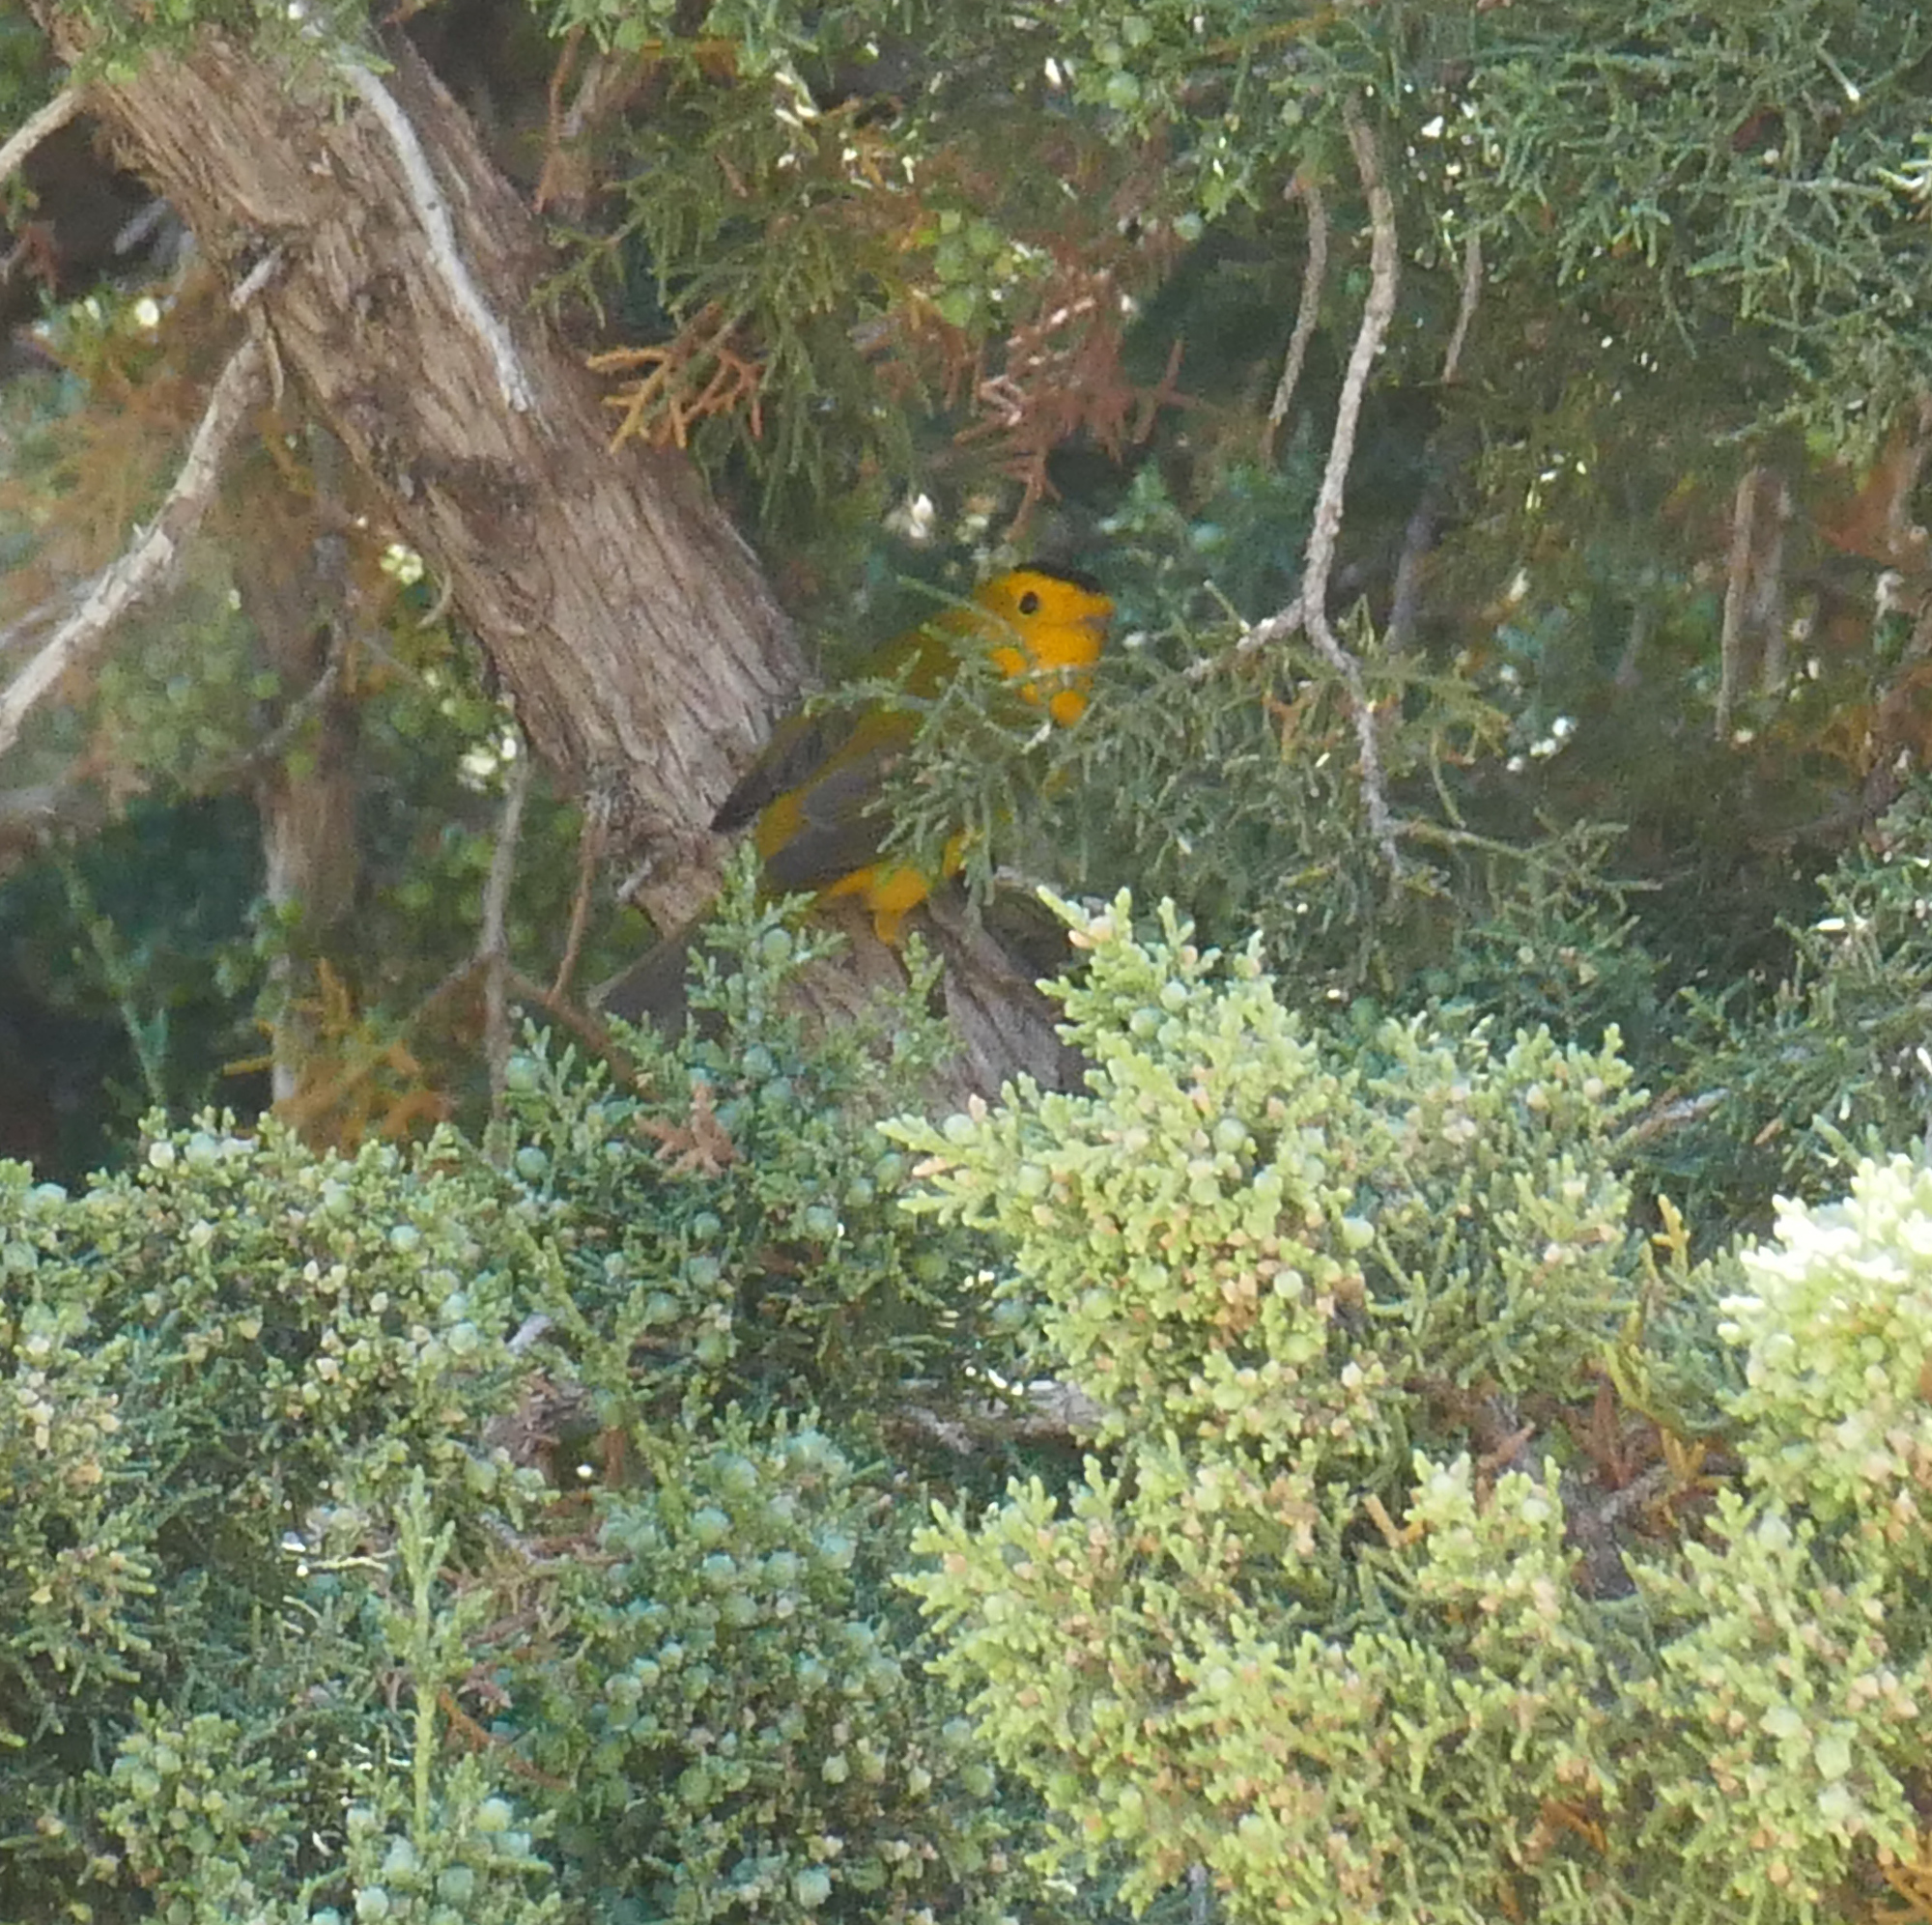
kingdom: Animalia
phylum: Chordata
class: Aves
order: Passeriformes
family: Parulidae
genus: Cardellina
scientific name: Cardellina pusilla
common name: Wilson's warbler
